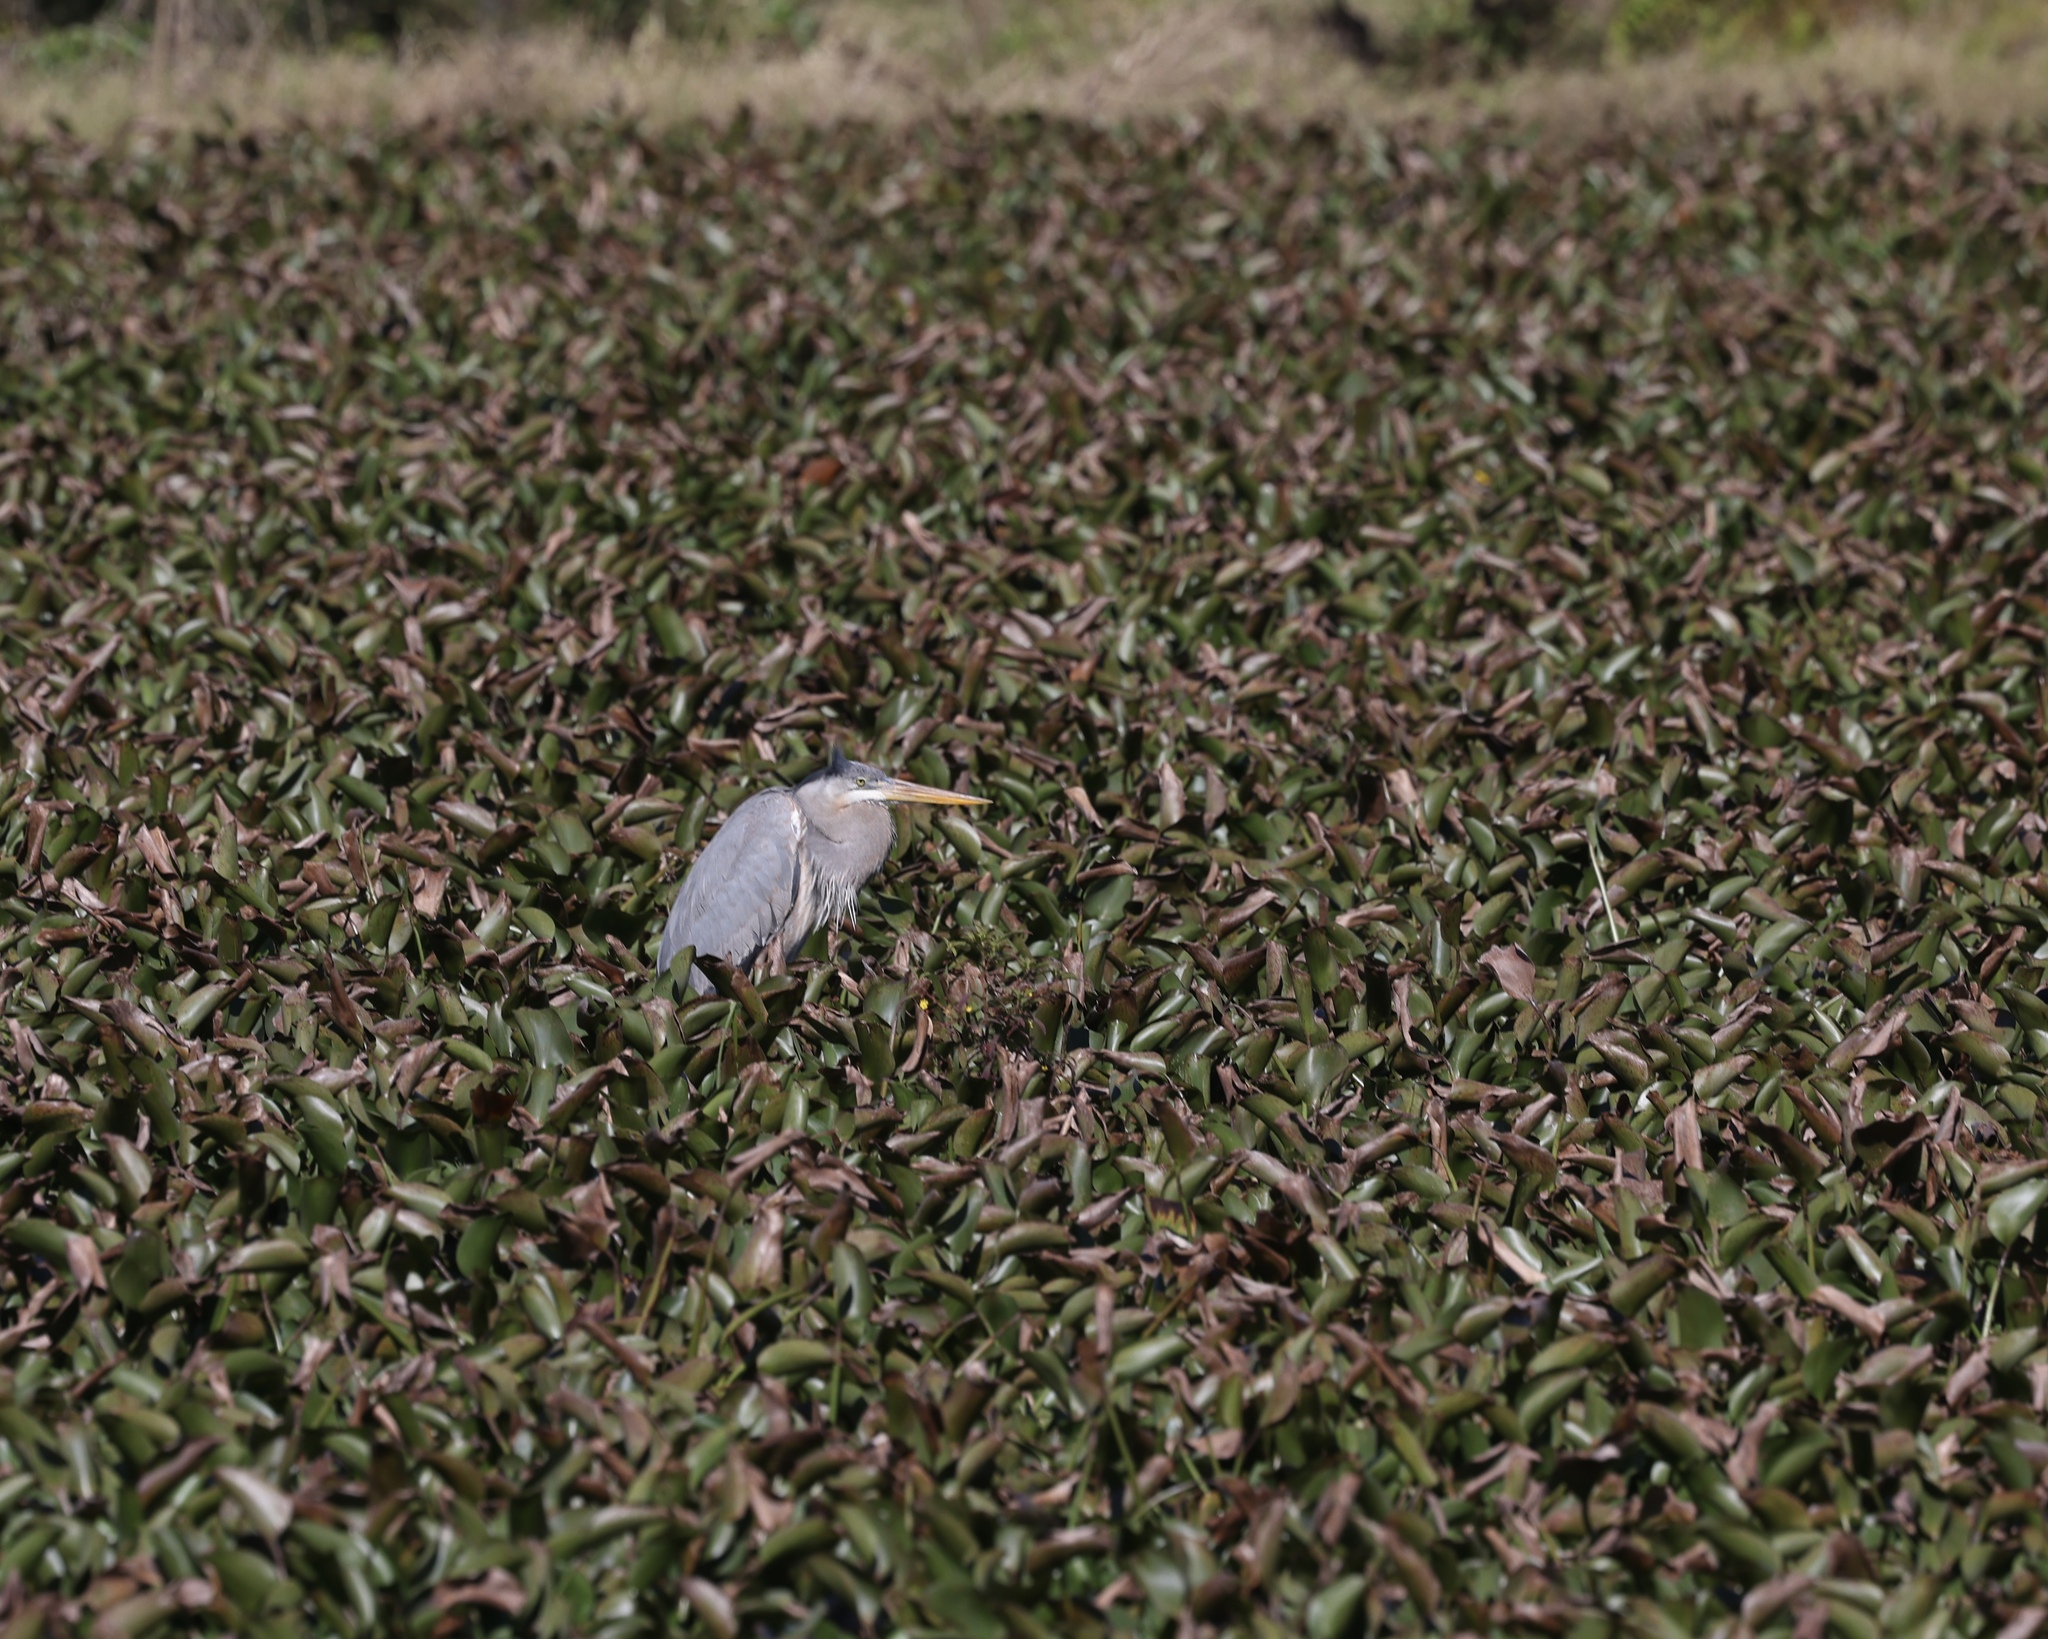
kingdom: Animalia
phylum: Chordata
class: Aves
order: Pelecaniformes
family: Ardeidae
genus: Ardea
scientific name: Ardea herodias
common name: Great blue heron
